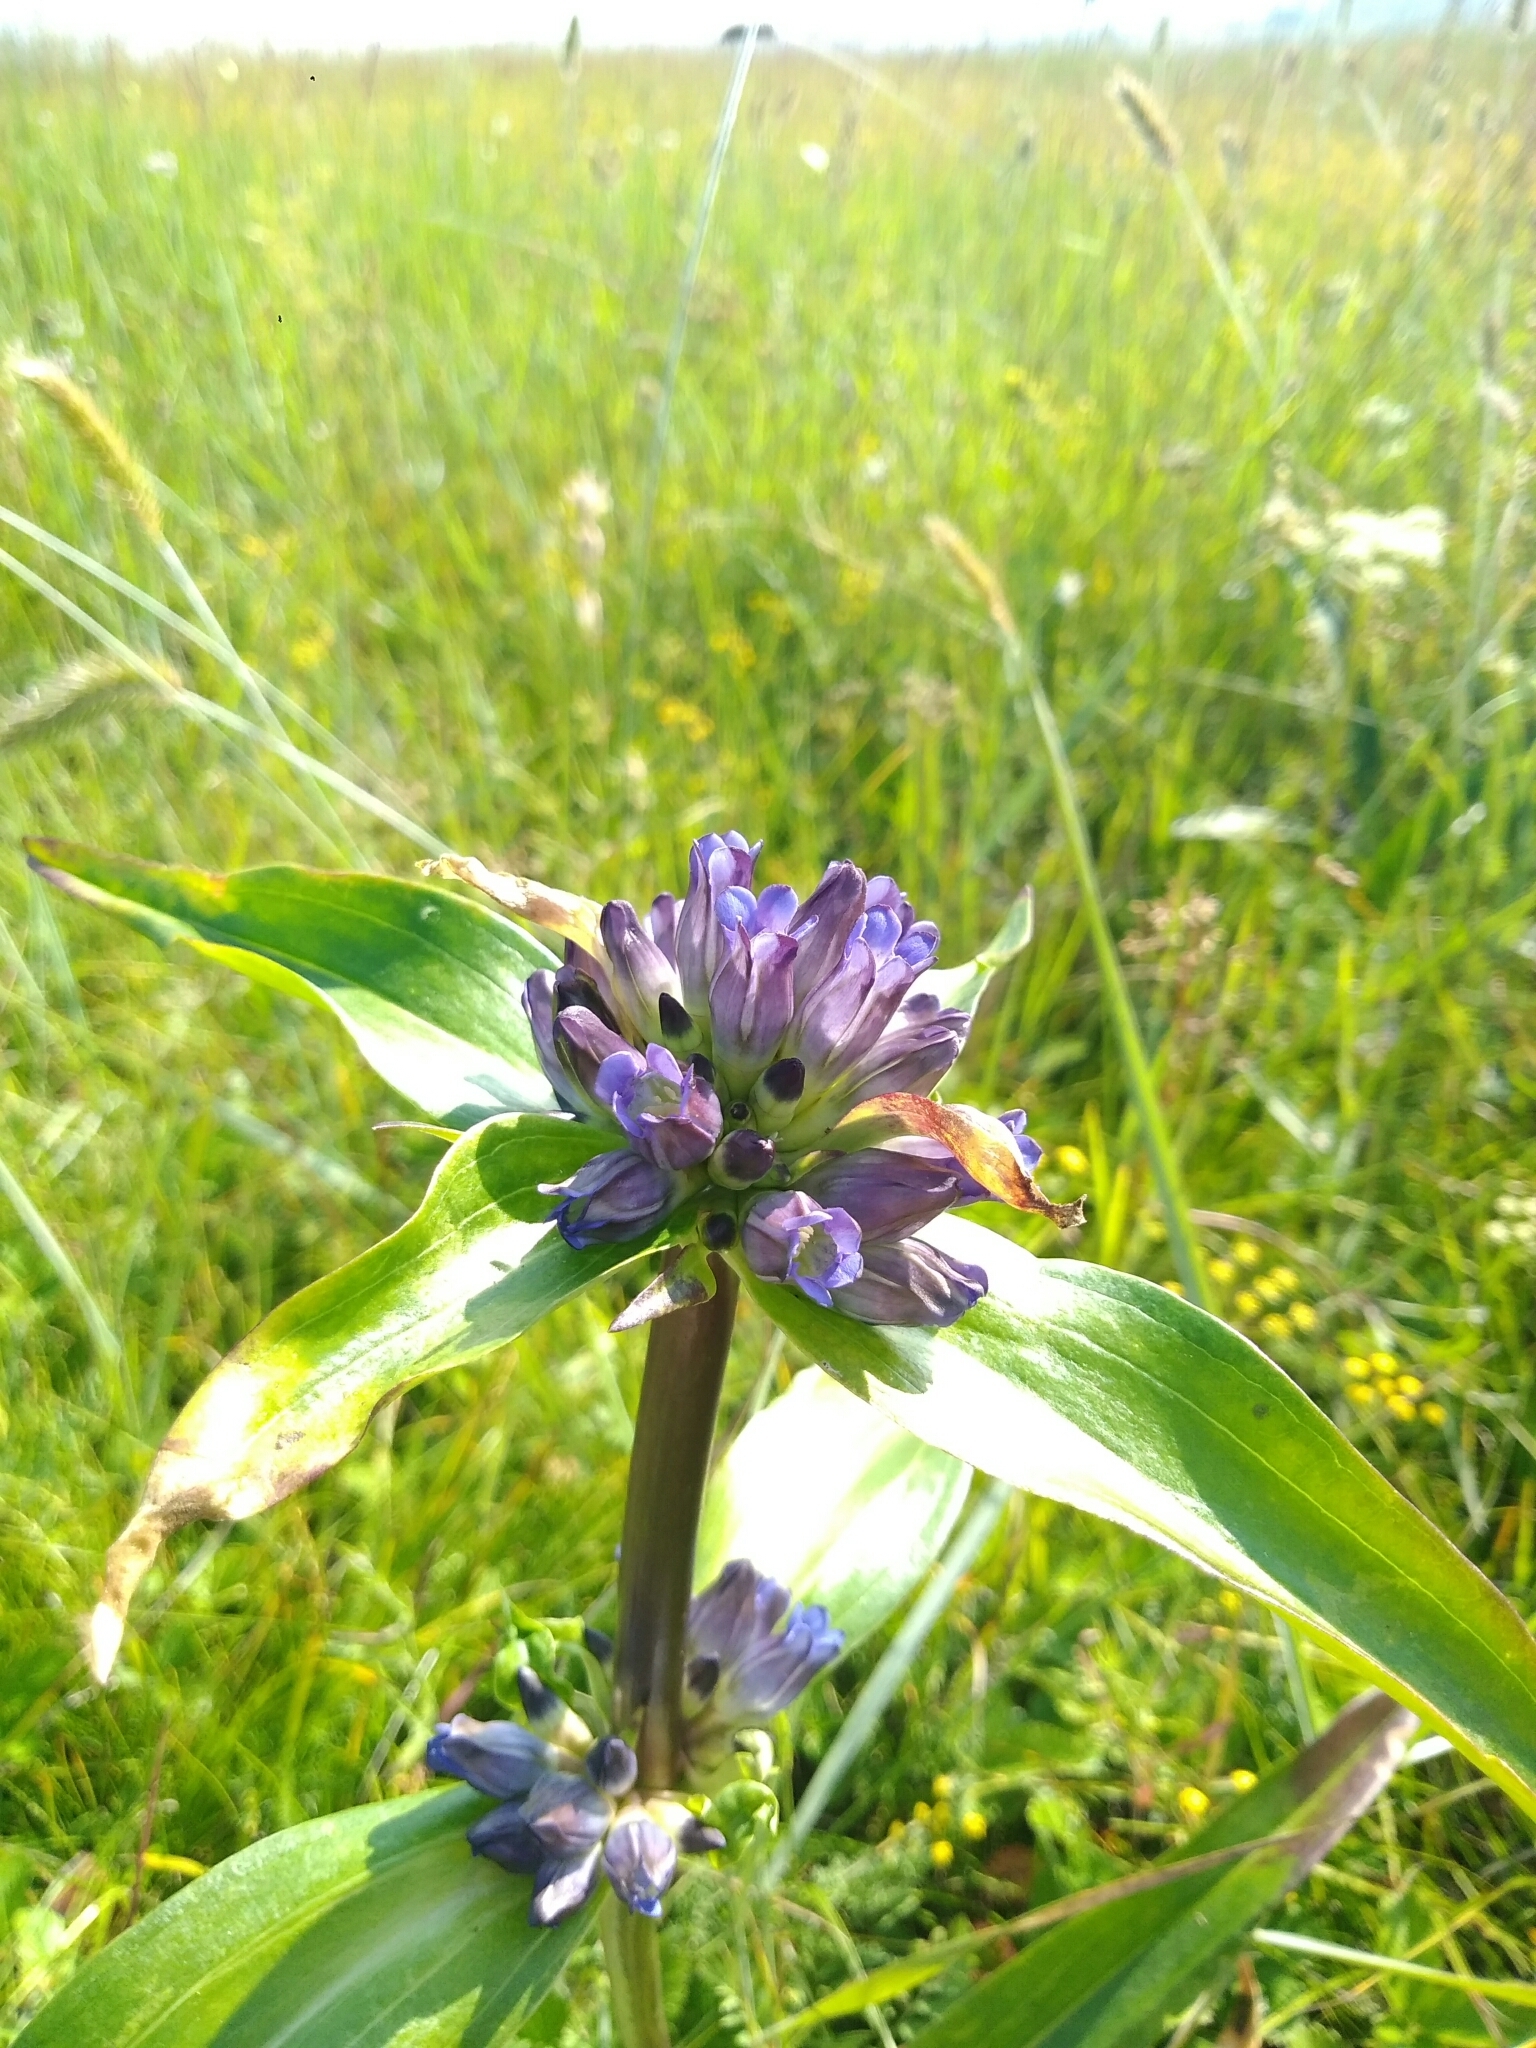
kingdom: Plantae
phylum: Tracheophyta
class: Magnoliopsida
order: Gentianales
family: Gentianaceae
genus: Gentiana
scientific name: Gentiana macrophylla
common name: Large-leaf gentian
